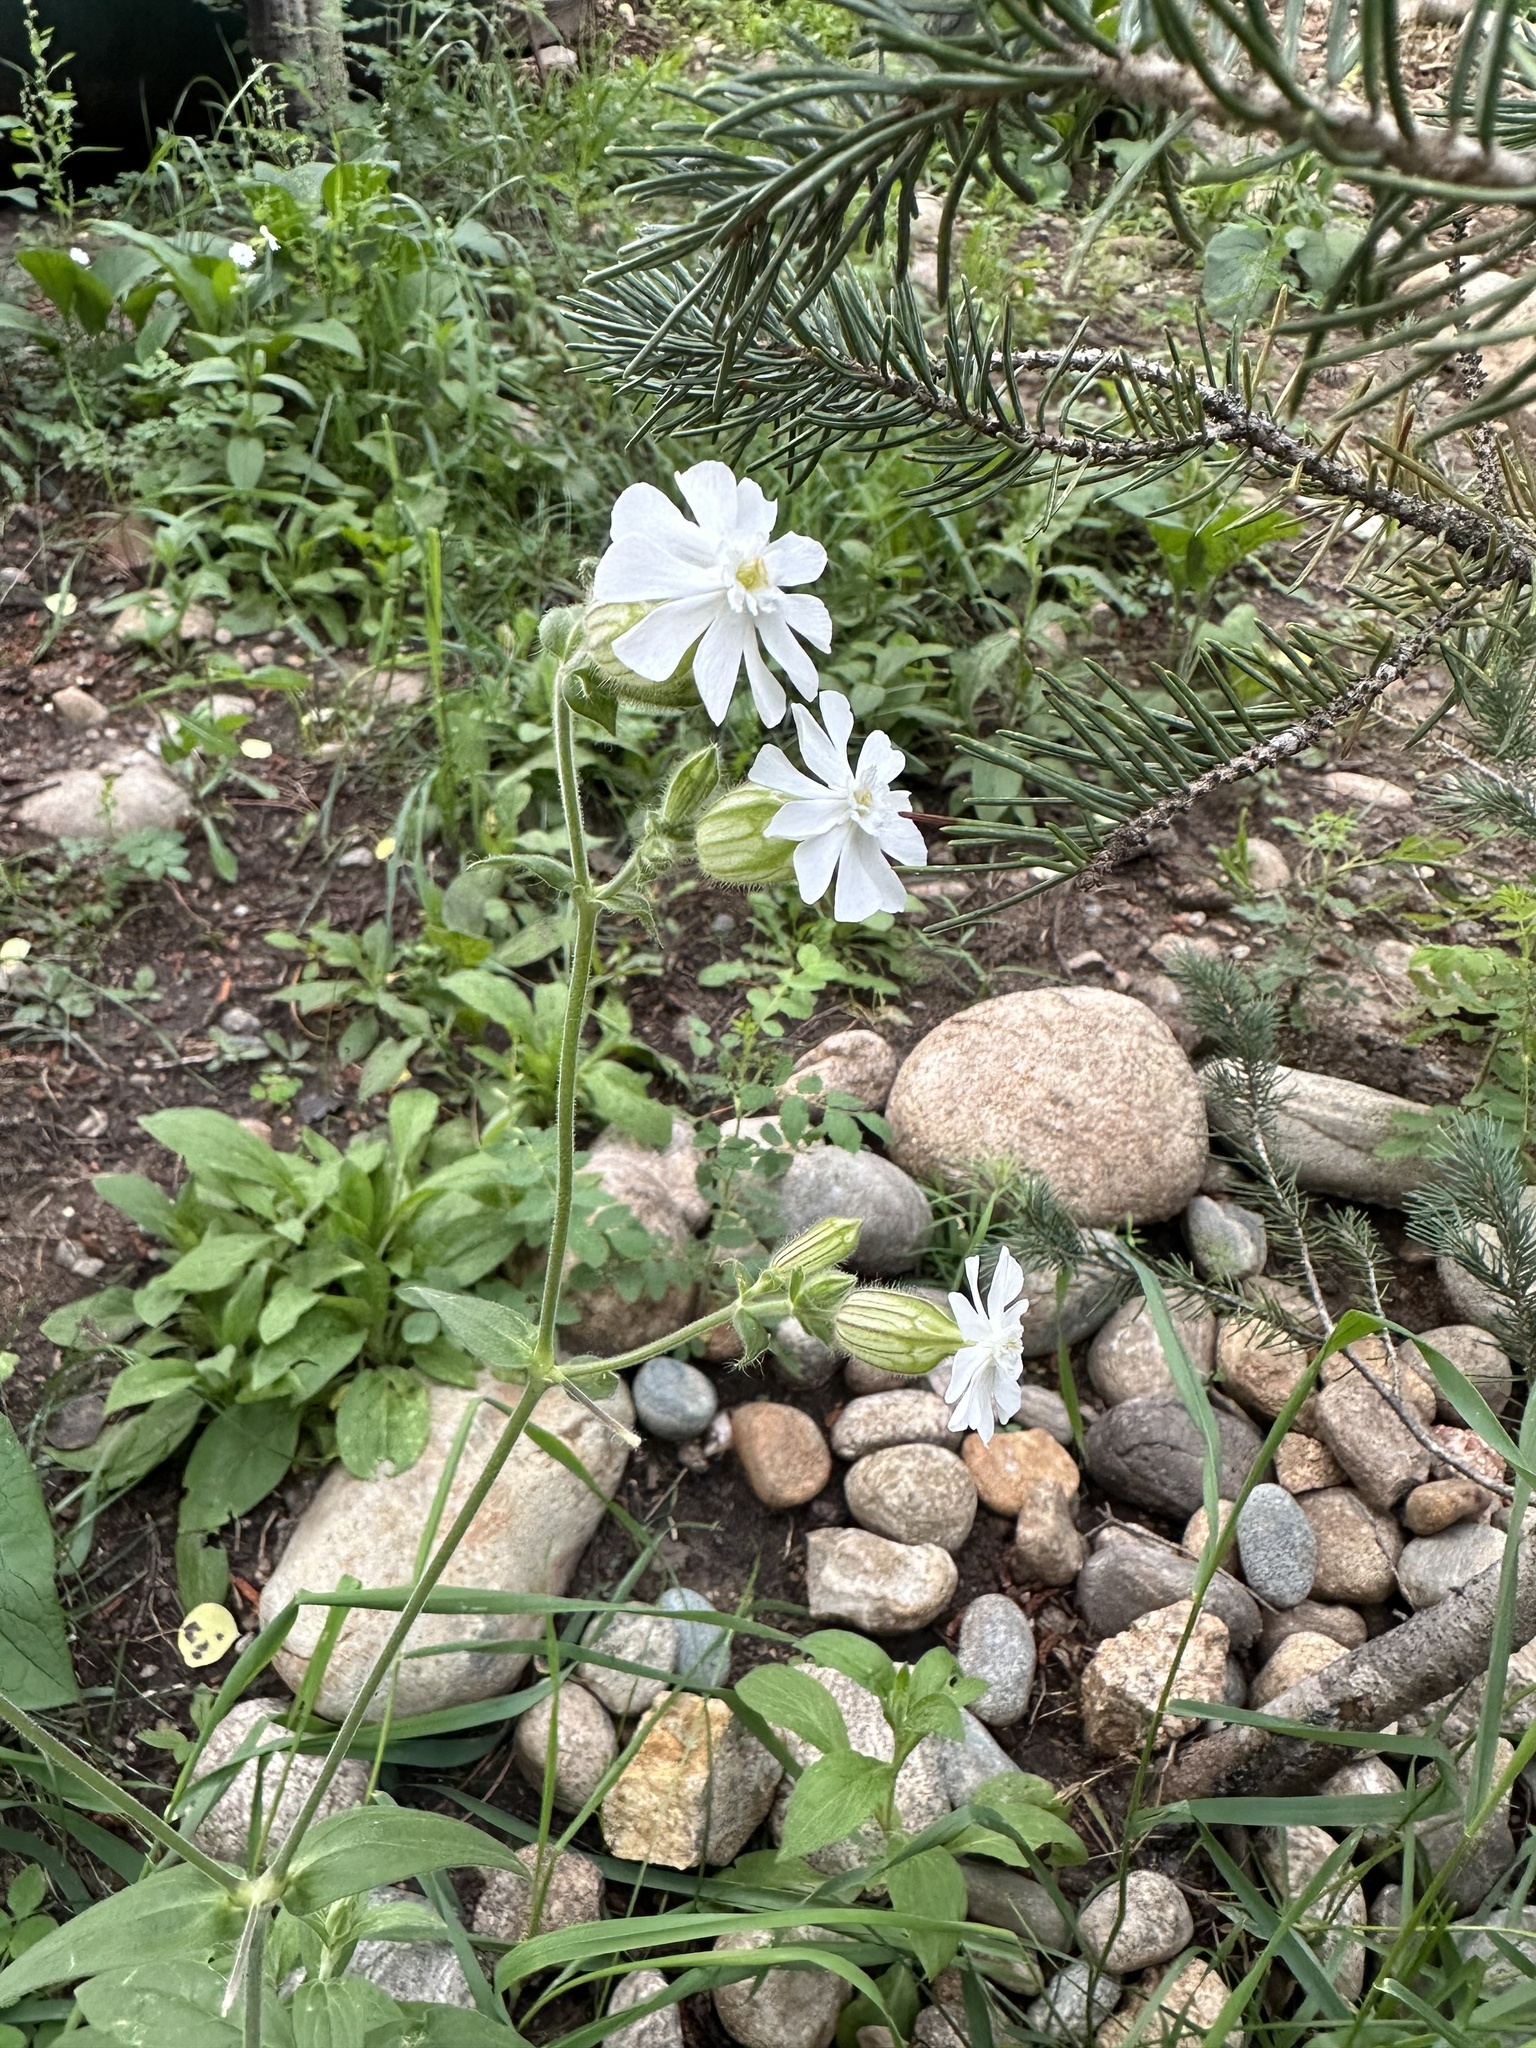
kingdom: Plantae
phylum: Tracheophyta
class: Magnoliopsida
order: Caryophyllales
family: Caryophyllaceae
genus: Silene
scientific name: Silene latifolia
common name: White campion
